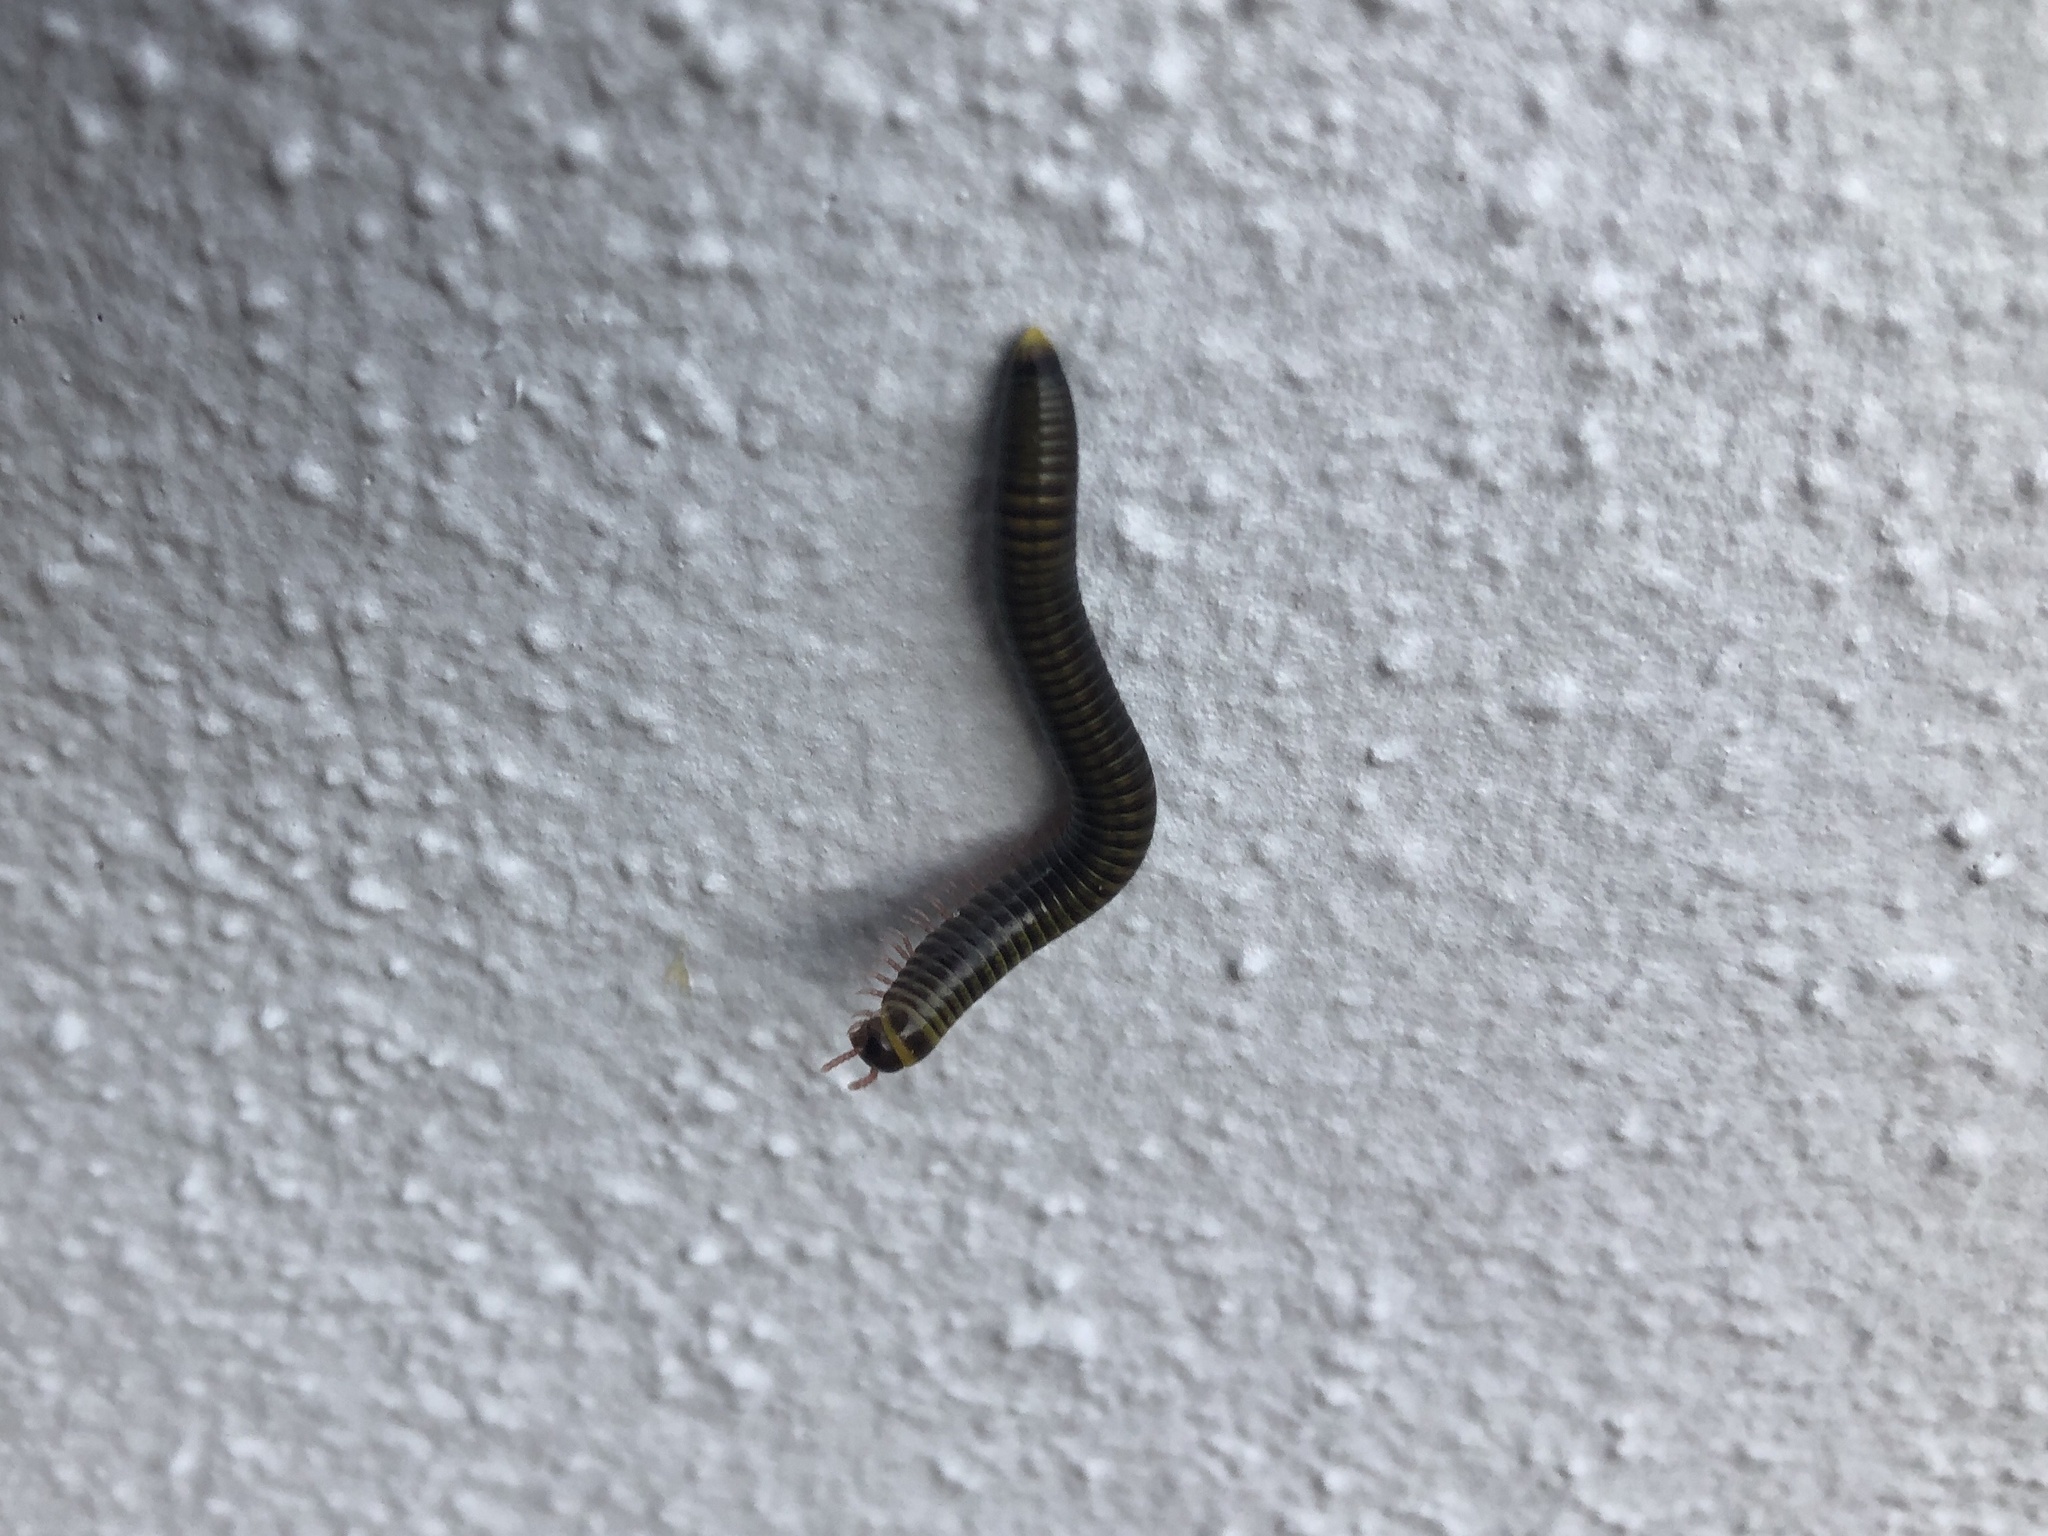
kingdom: Animalia
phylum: Arthropoda
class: Diplopoda
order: Spirobolida
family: Rhinocricidae
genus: Anadenobolus
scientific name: Anadenobolus monilicornis
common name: Caribbean millipede
